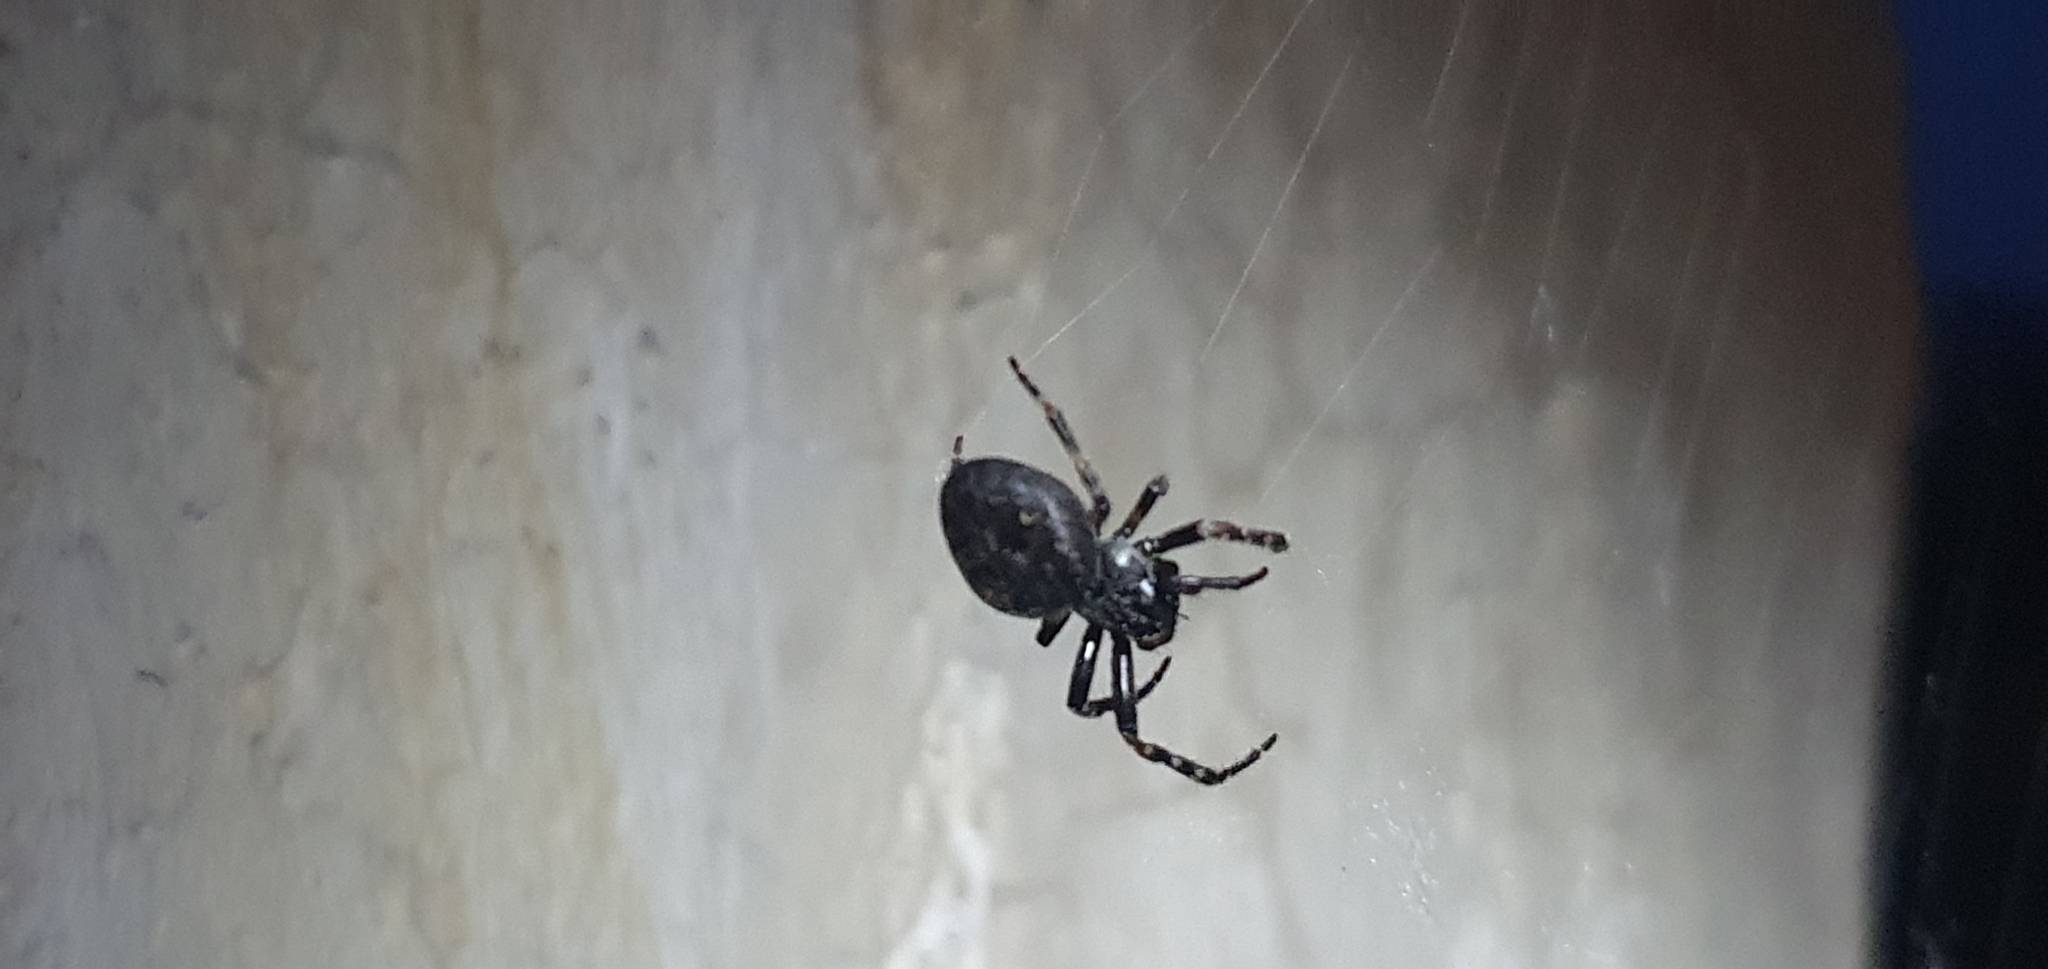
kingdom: Animalia
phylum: Arthropoda
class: Arachnida
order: Araneae
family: Araneidae
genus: Nuctenea
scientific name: Nuctenea umbratica
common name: Toad spider
